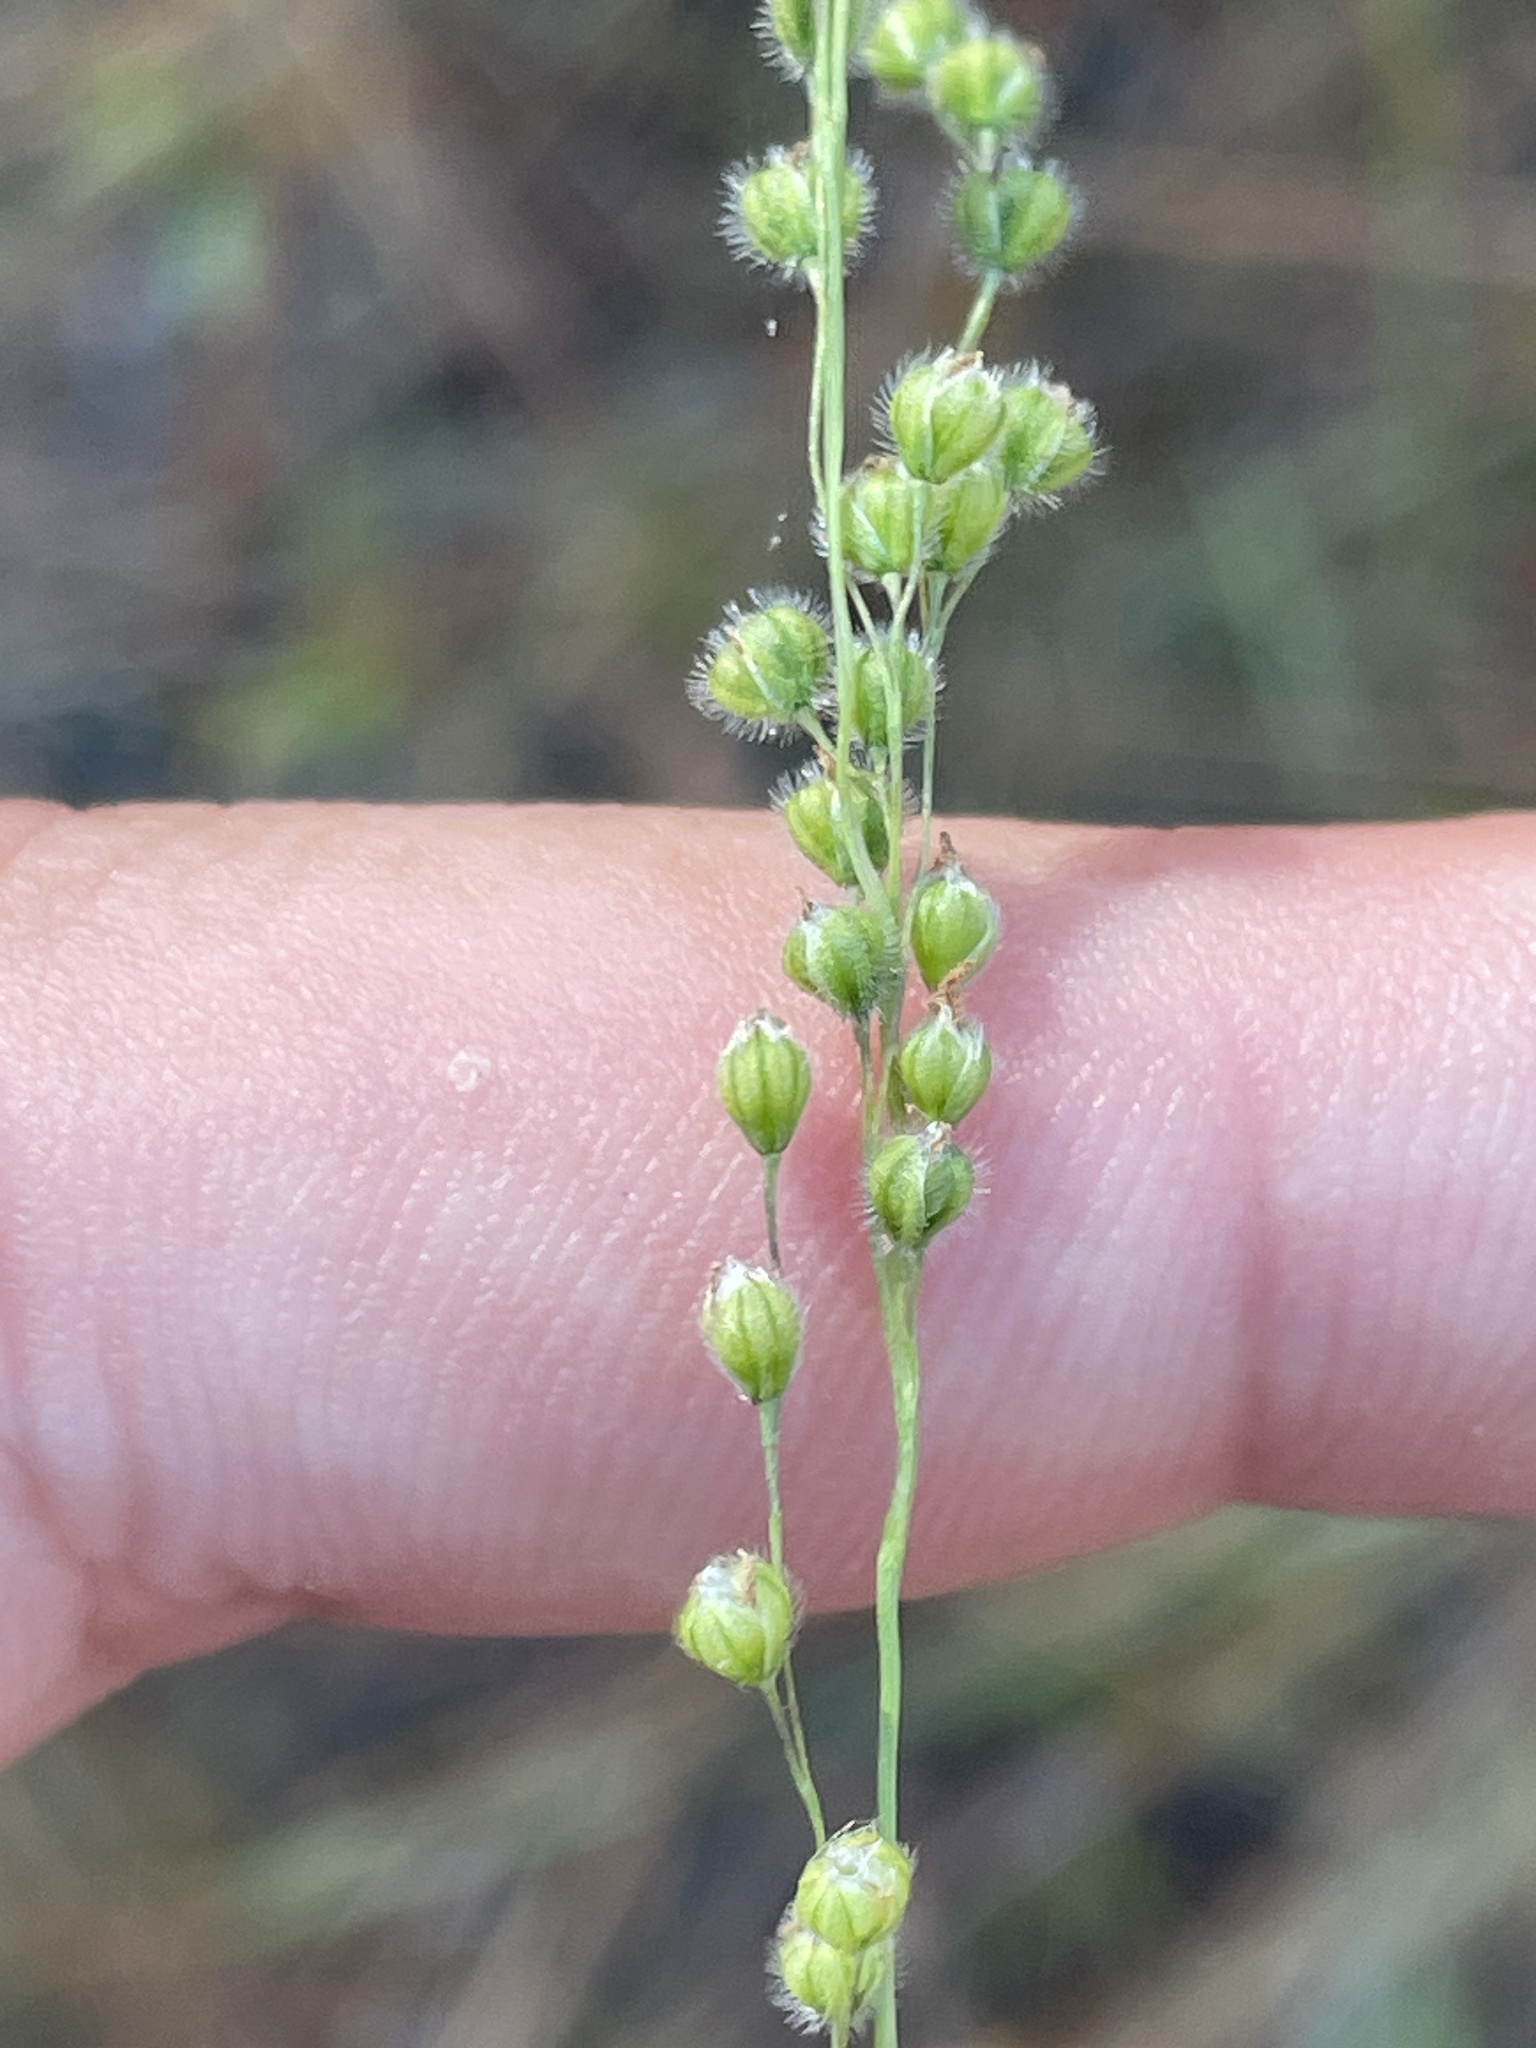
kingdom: Plantae
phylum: Tracheophyta
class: Liliopsida
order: Poales
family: Poaceae
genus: Anthenantia
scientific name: Anthenantia villosa
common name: Green silkyscale
